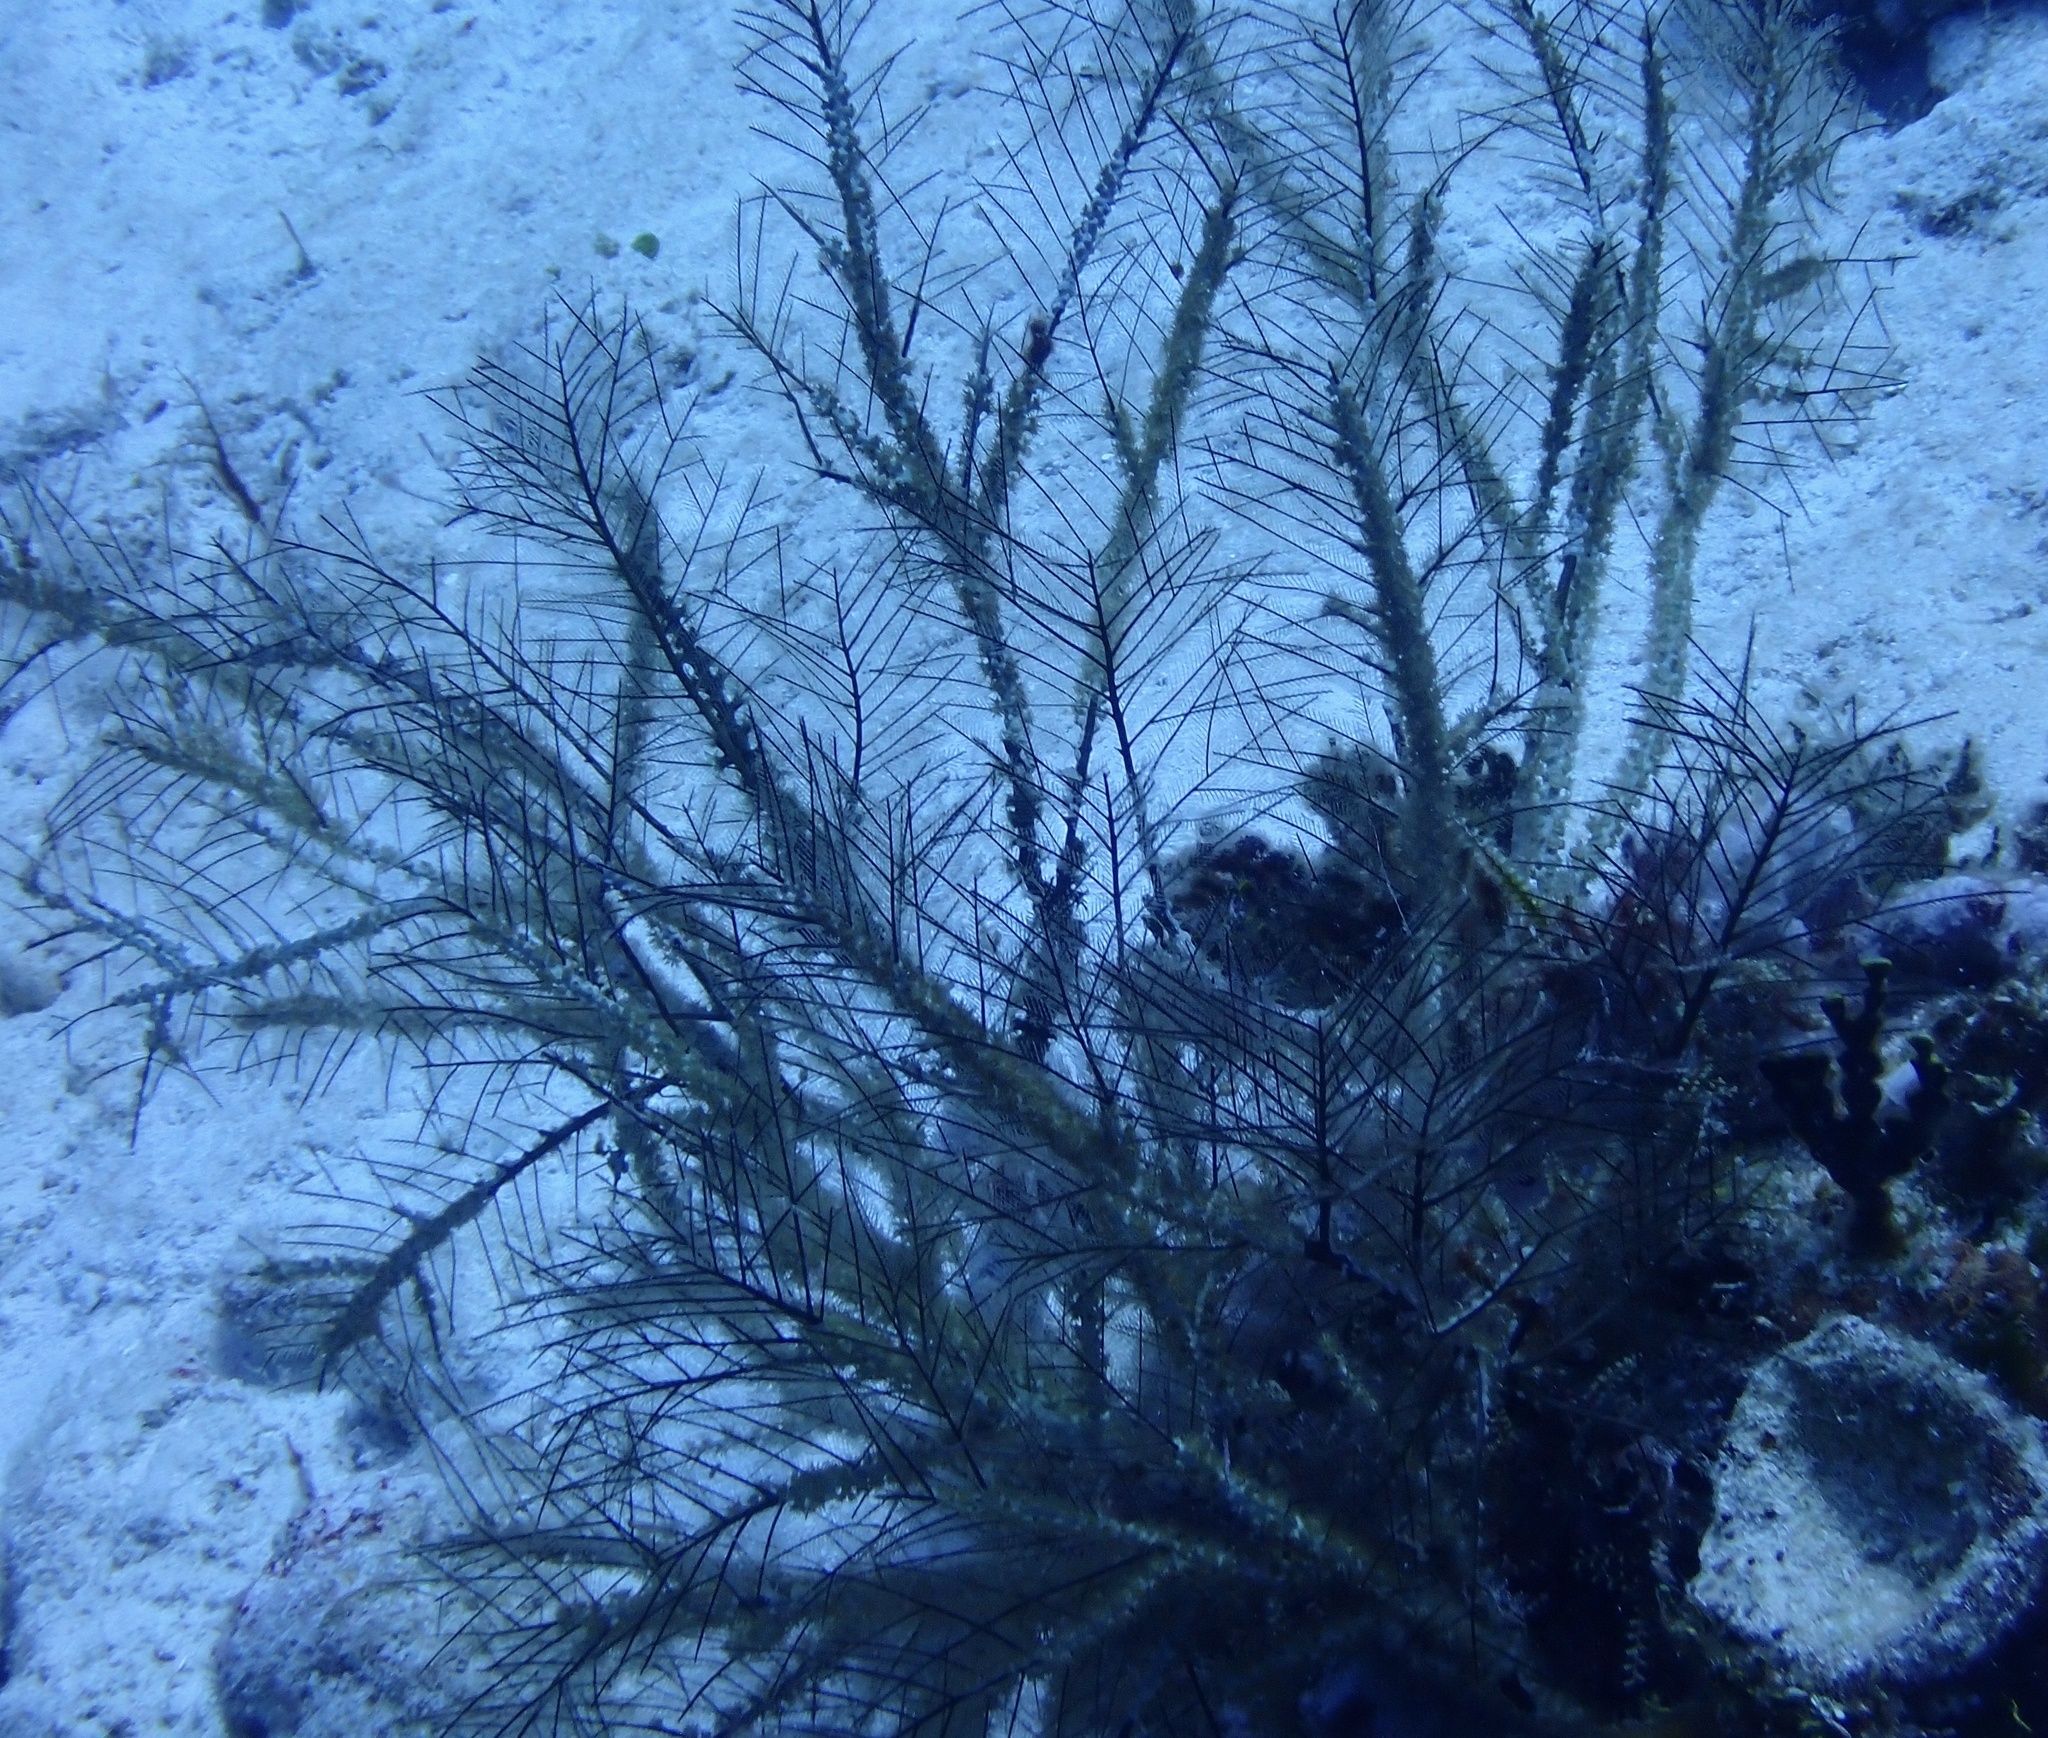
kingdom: Animalia
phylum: Cnidaria
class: Anthozoa
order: Zoantharia
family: Hydrozoanthidae
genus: Hydrozoanthus
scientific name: Hydrozoanthus antumbrosus
